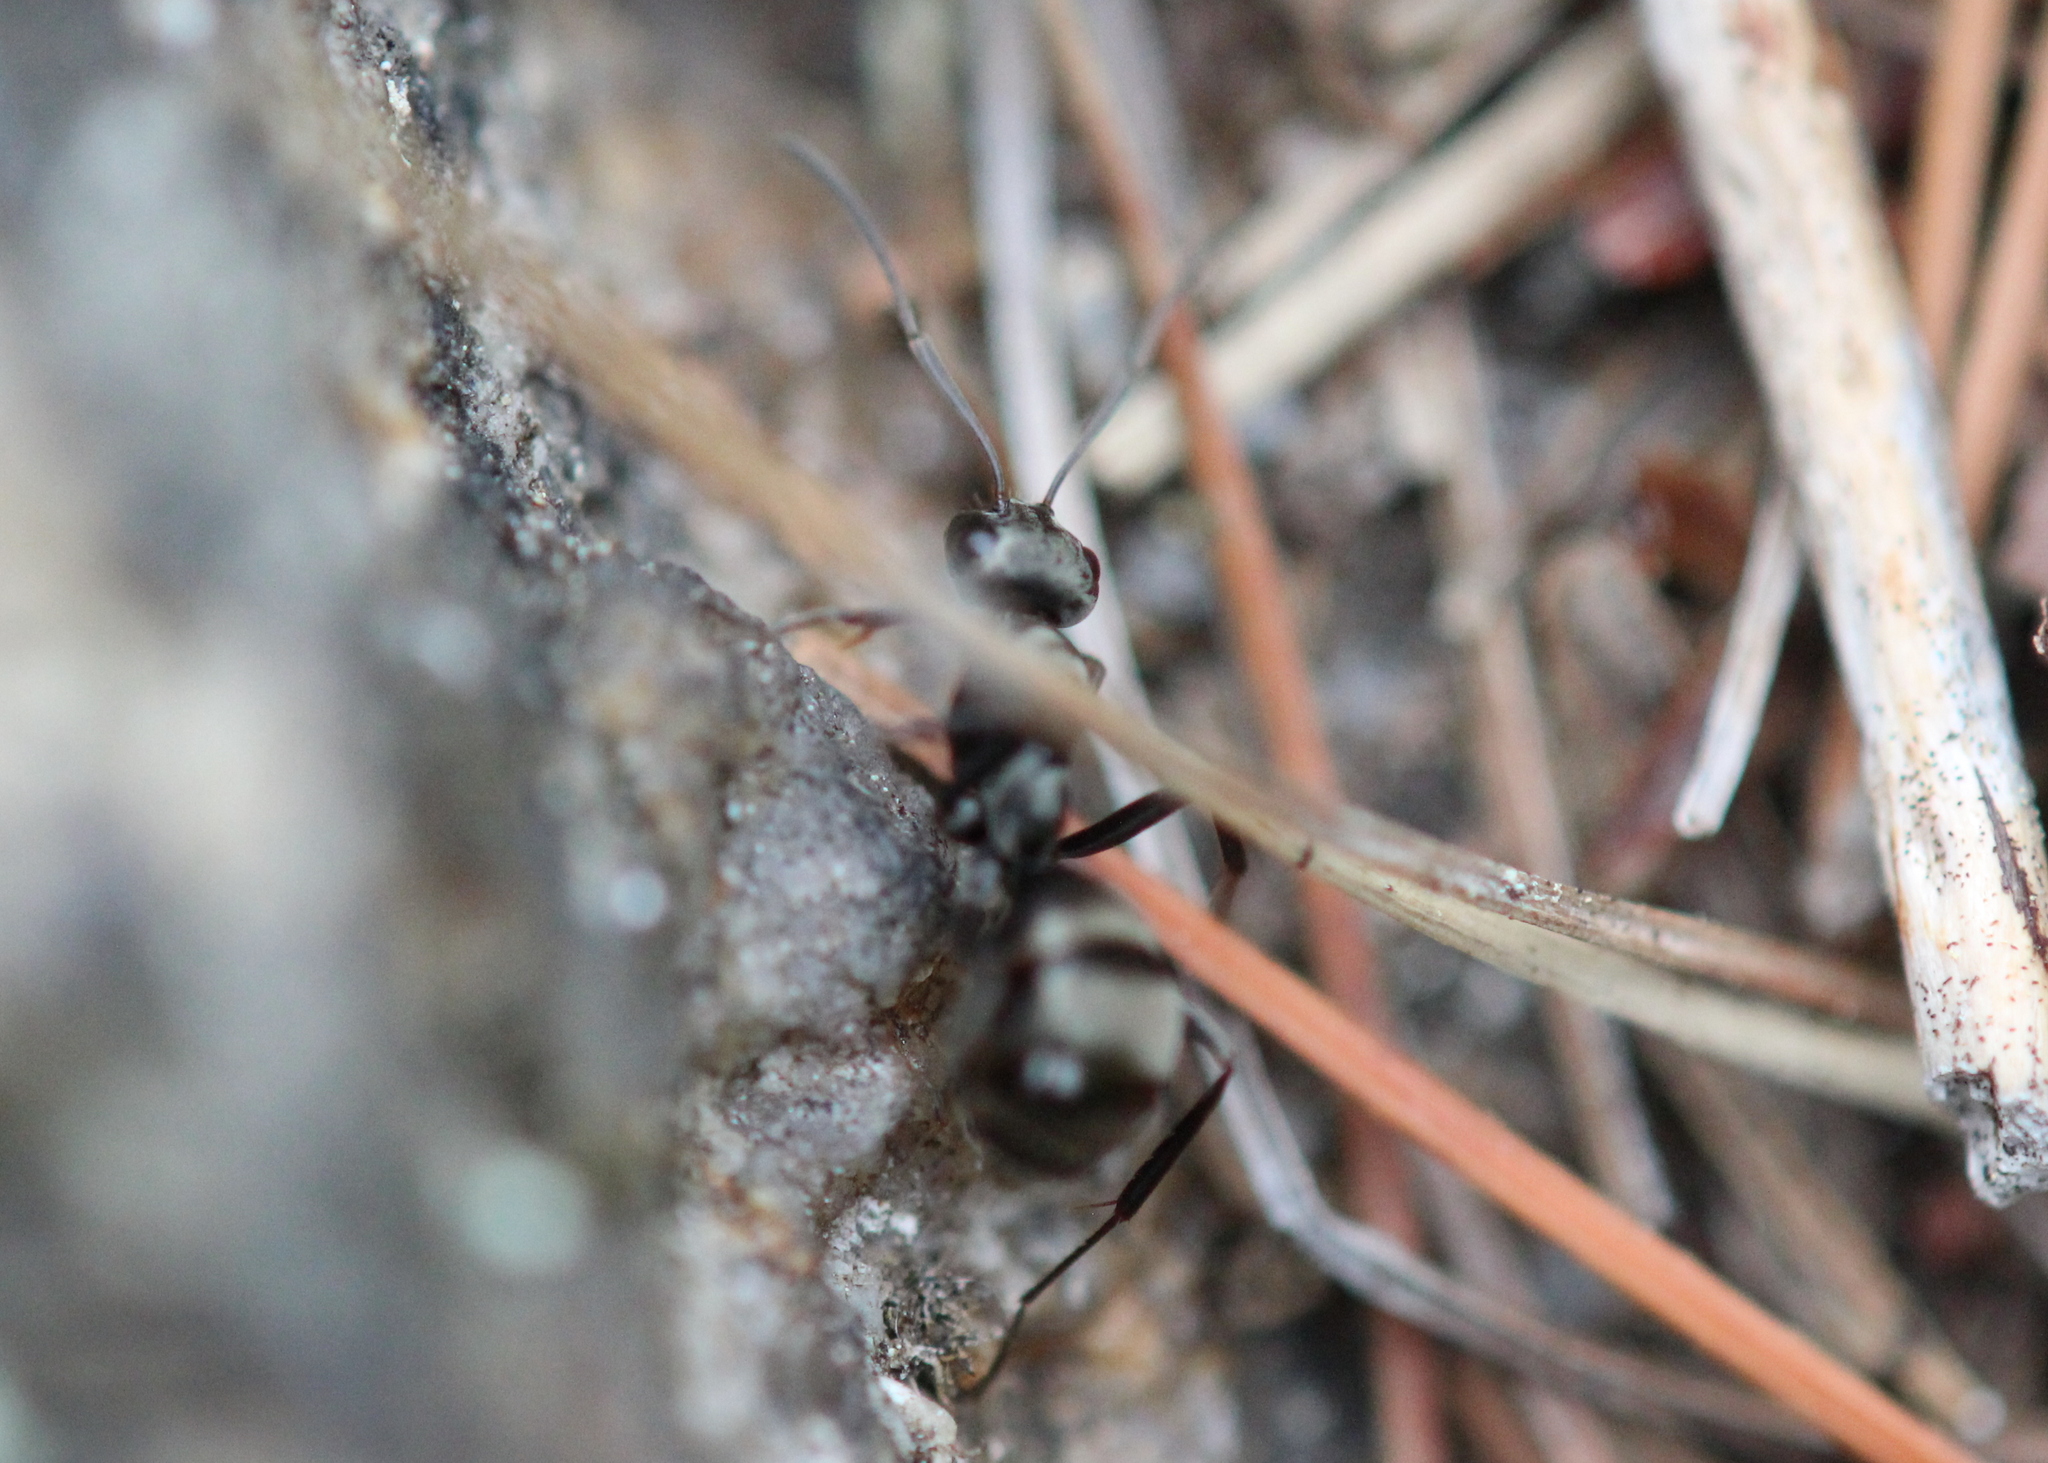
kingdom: Animalia
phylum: Arthropoda
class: Insecta
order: Hymenoptera
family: Formicidae
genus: Formica
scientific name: Formica
